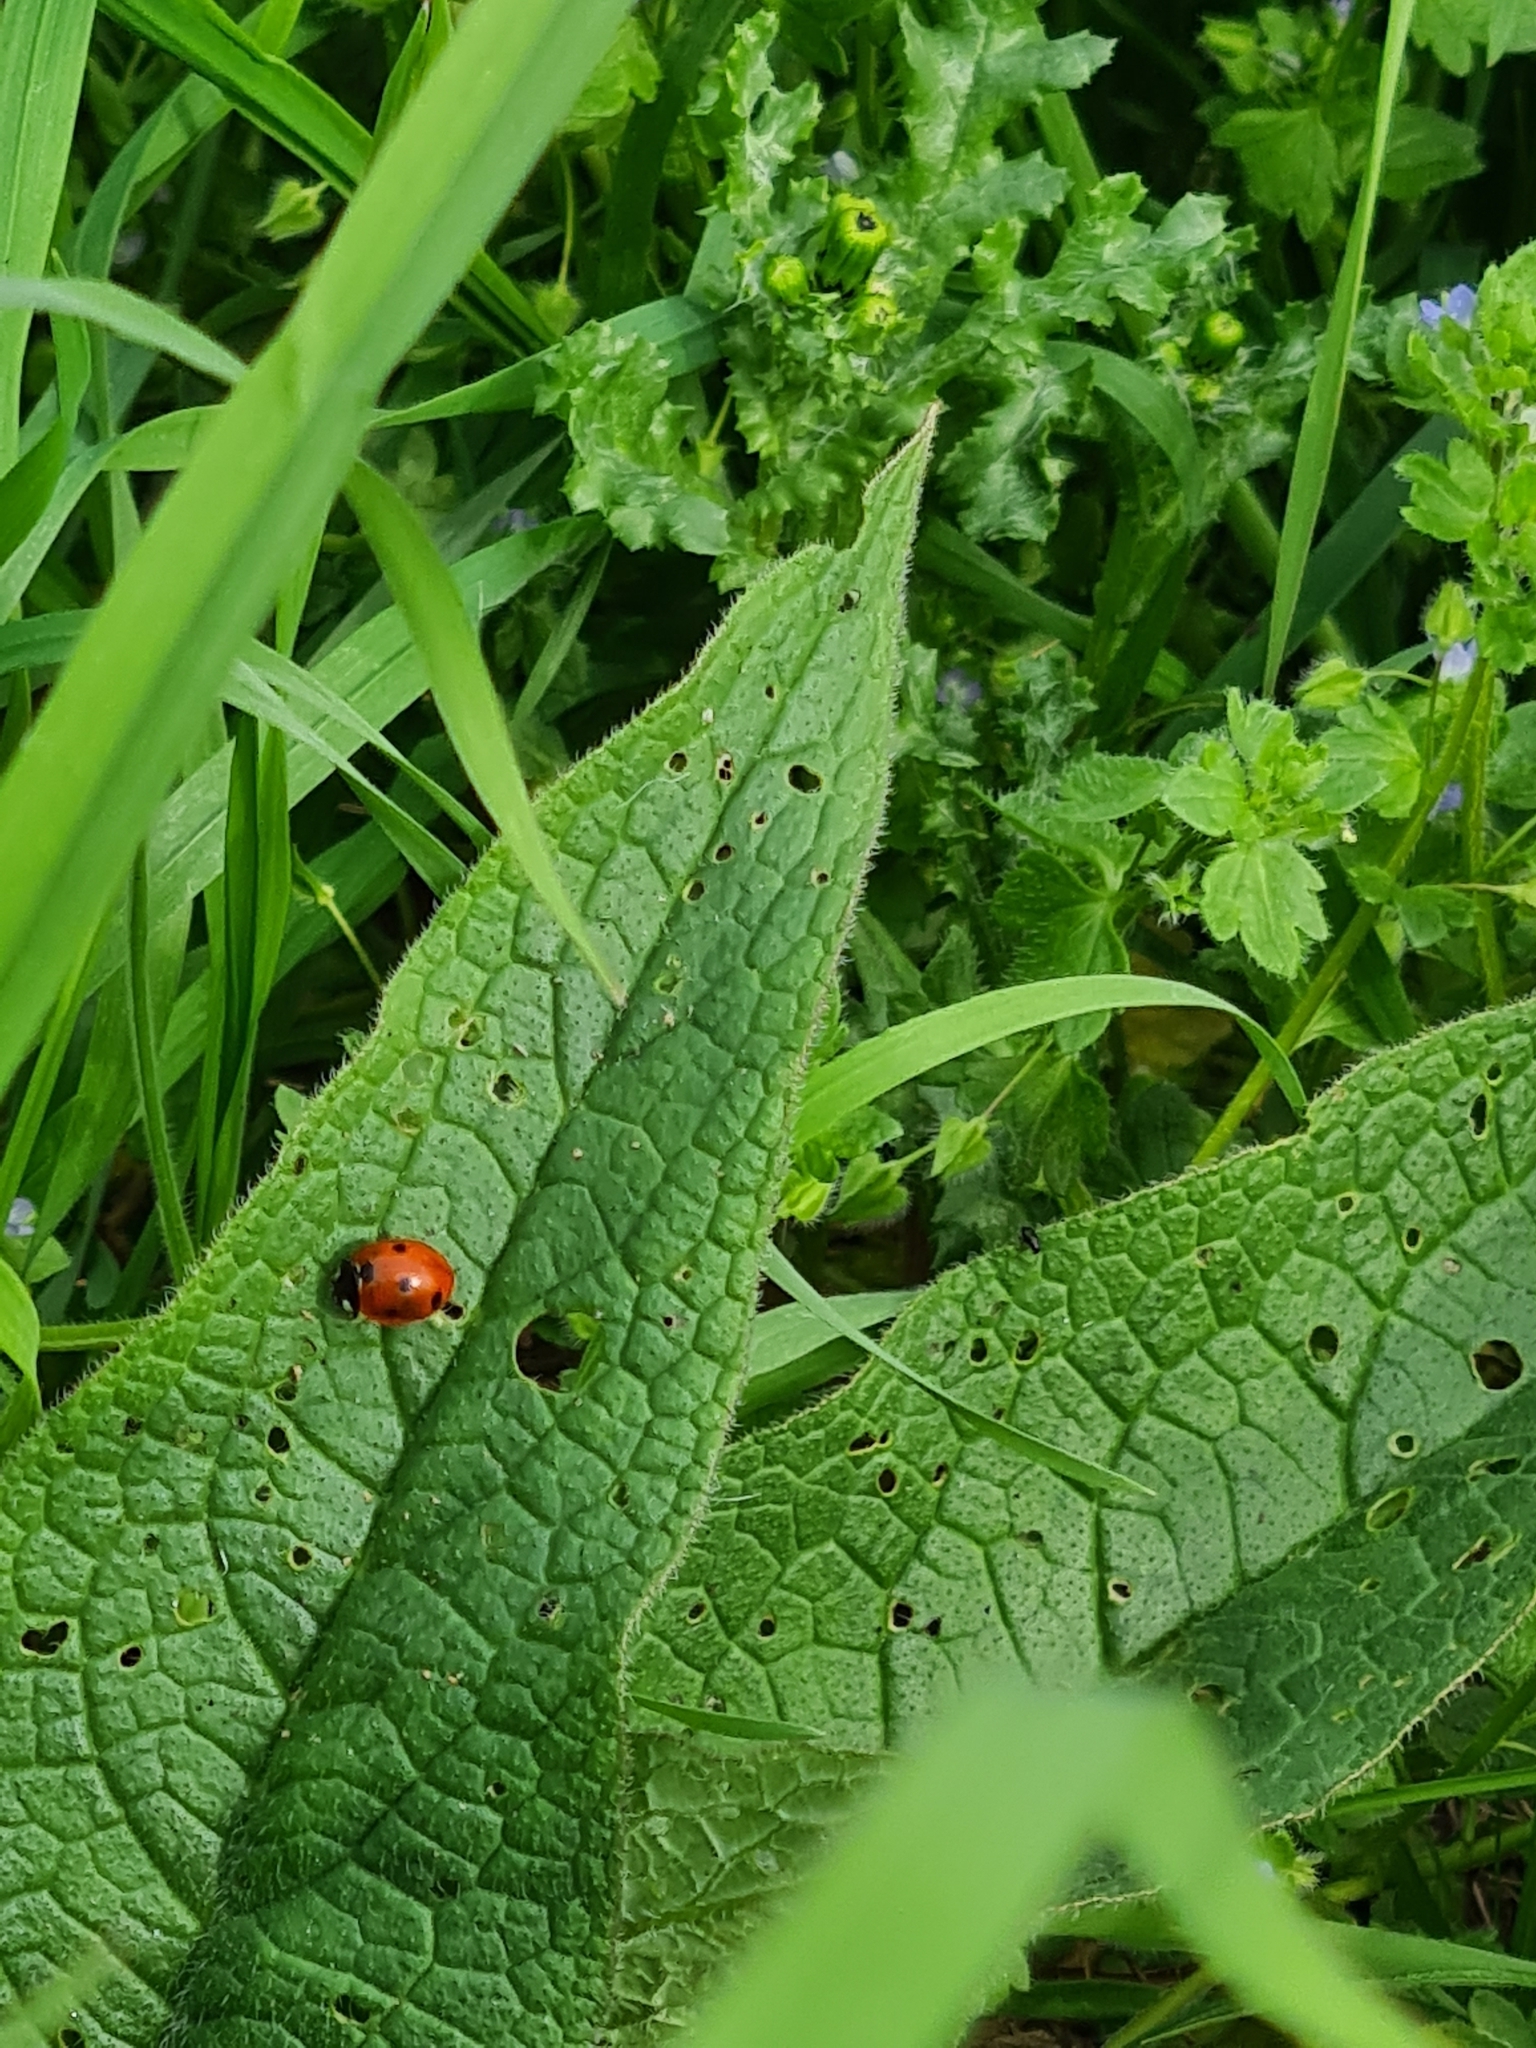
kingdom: Animalia
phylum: Arthropoda
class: Insecta
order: Coleoptera
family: Coccinellidae
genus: Coccinella
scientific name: Coccinella septempunctata
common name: Sevenspotted lady beetle
